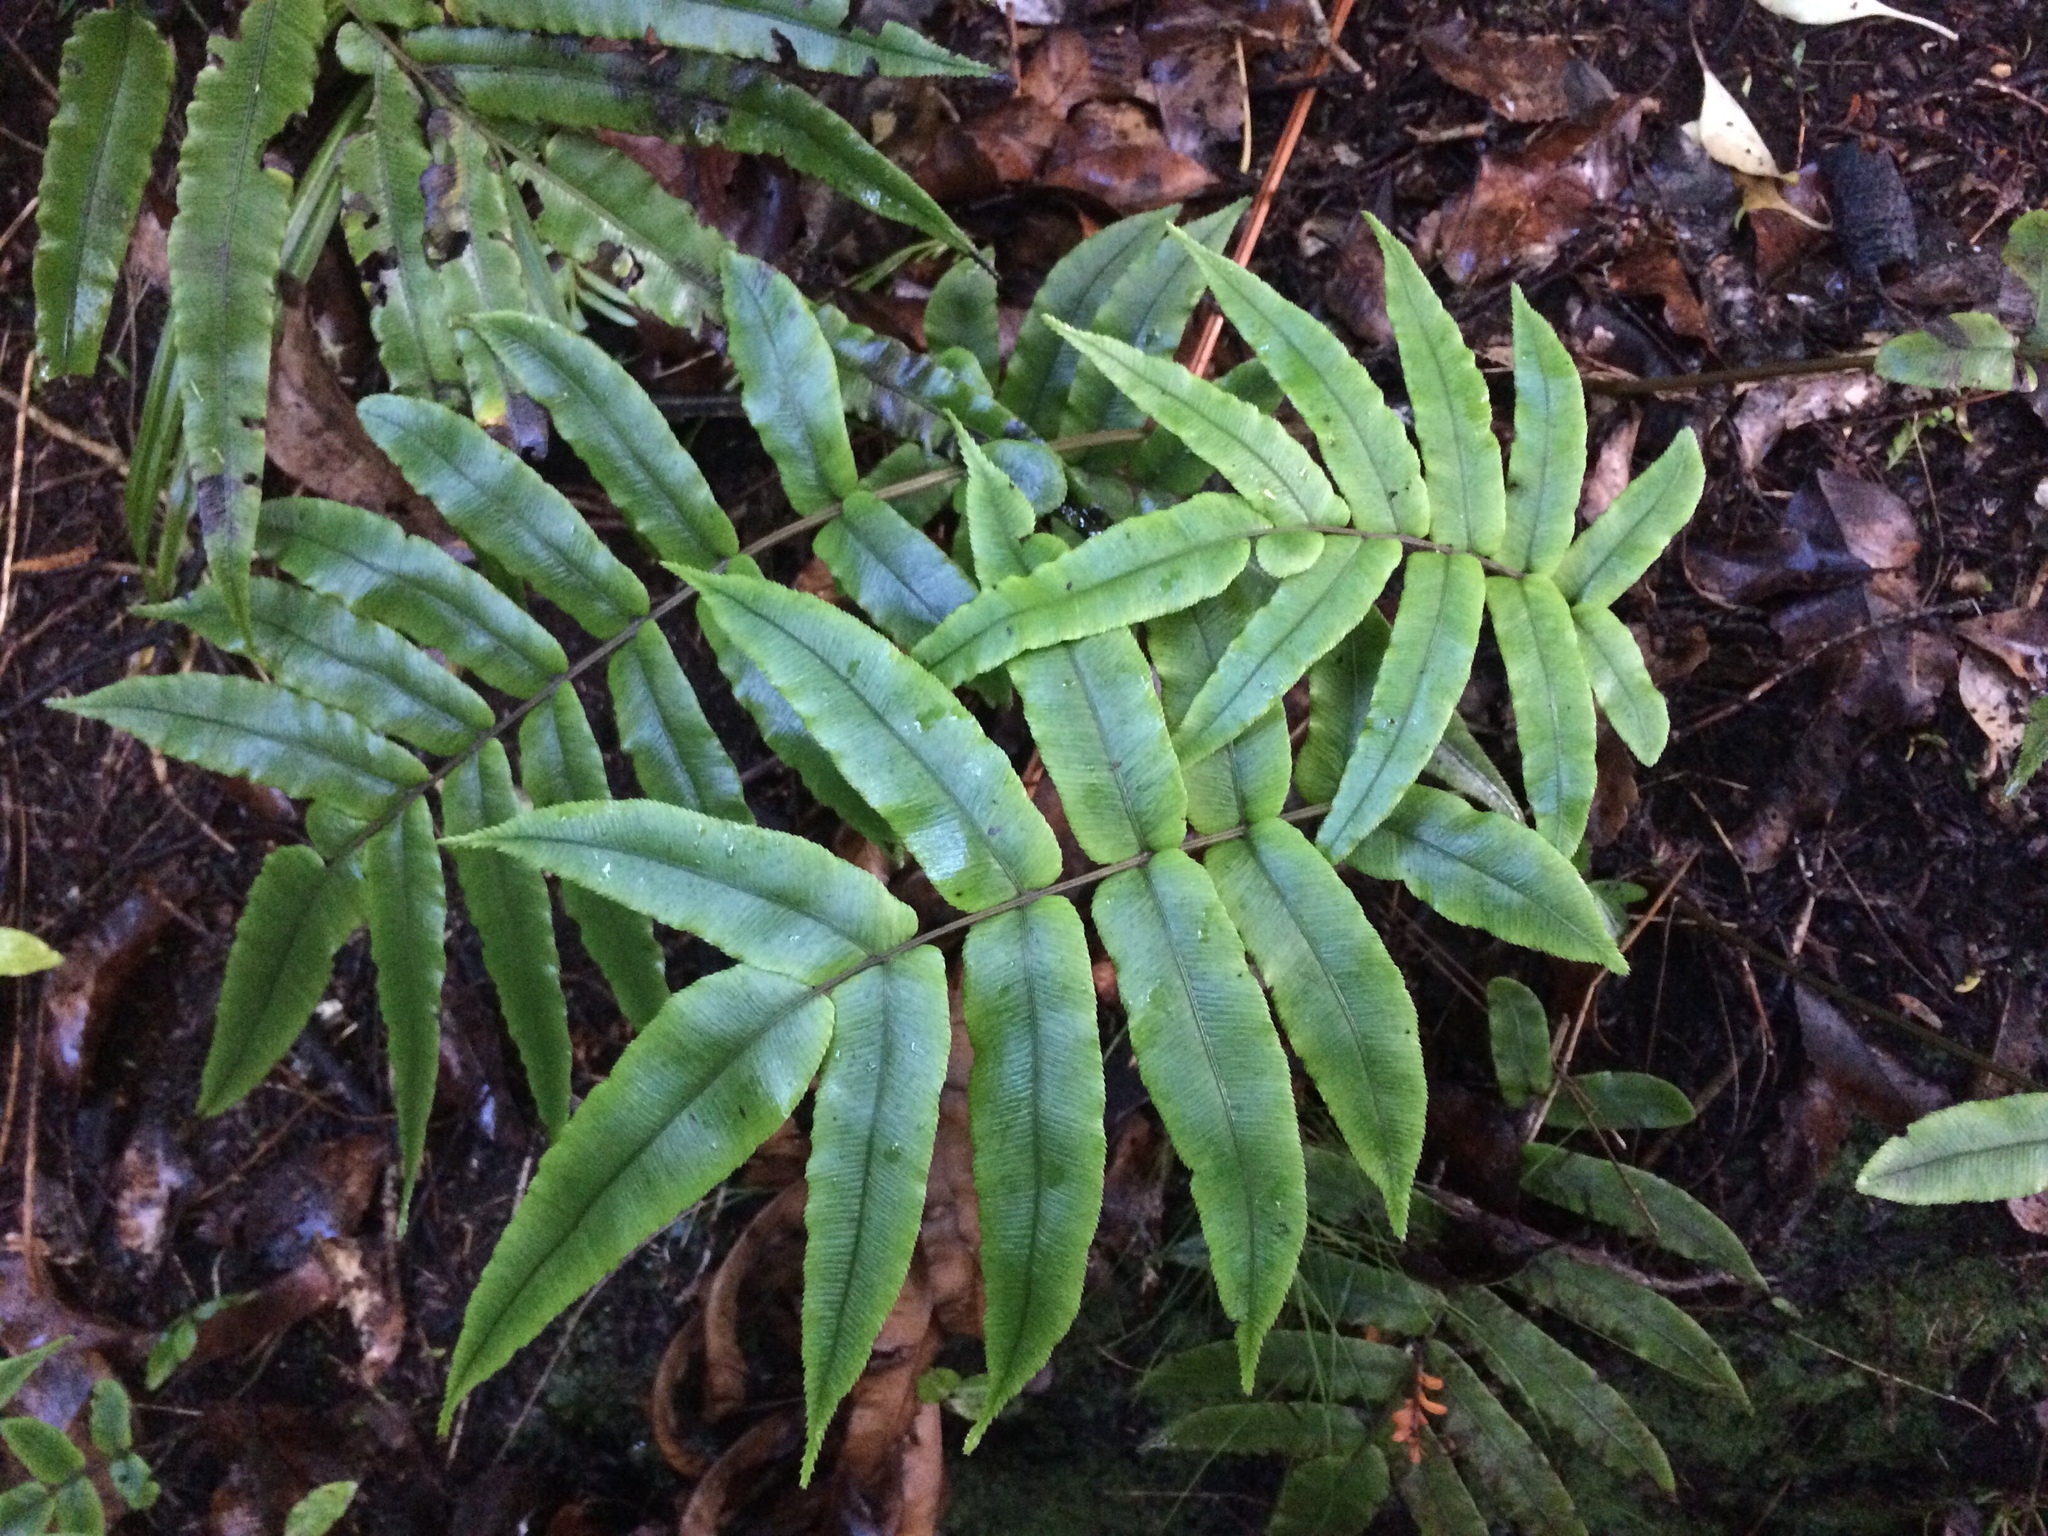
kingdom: Plantae
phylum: Tracheophyta
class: Polypodiopsida
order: Polypodiales
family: Blechnaceae
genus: Parablechnum
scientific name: Parablechnum procerum
